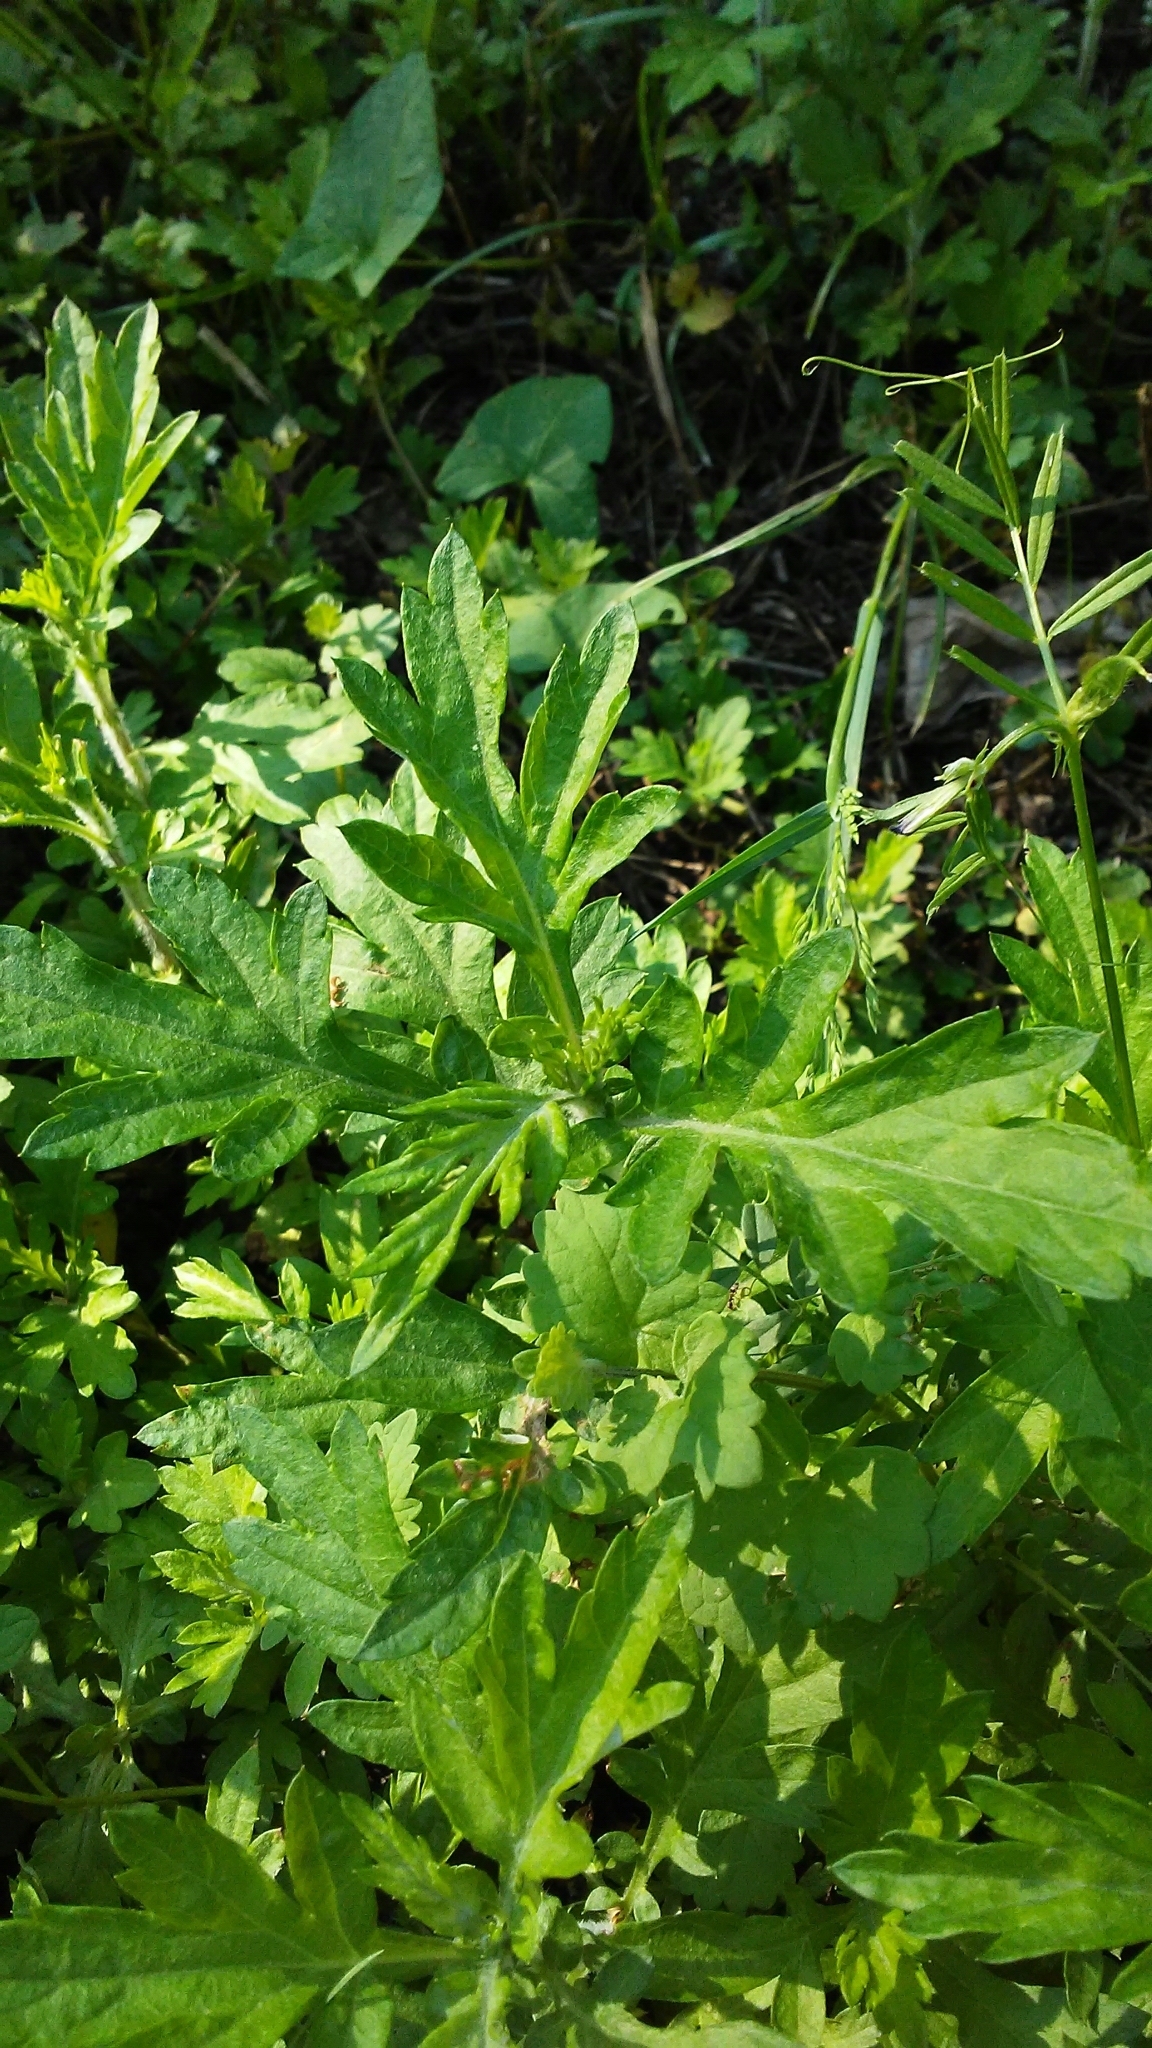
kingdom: Plantae
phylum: Tracheophyta
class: Magnoliopsida
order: Asterales
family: Asteraceae
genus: Artemisia
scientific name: Artemisia vulgaris
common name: Mugwort
